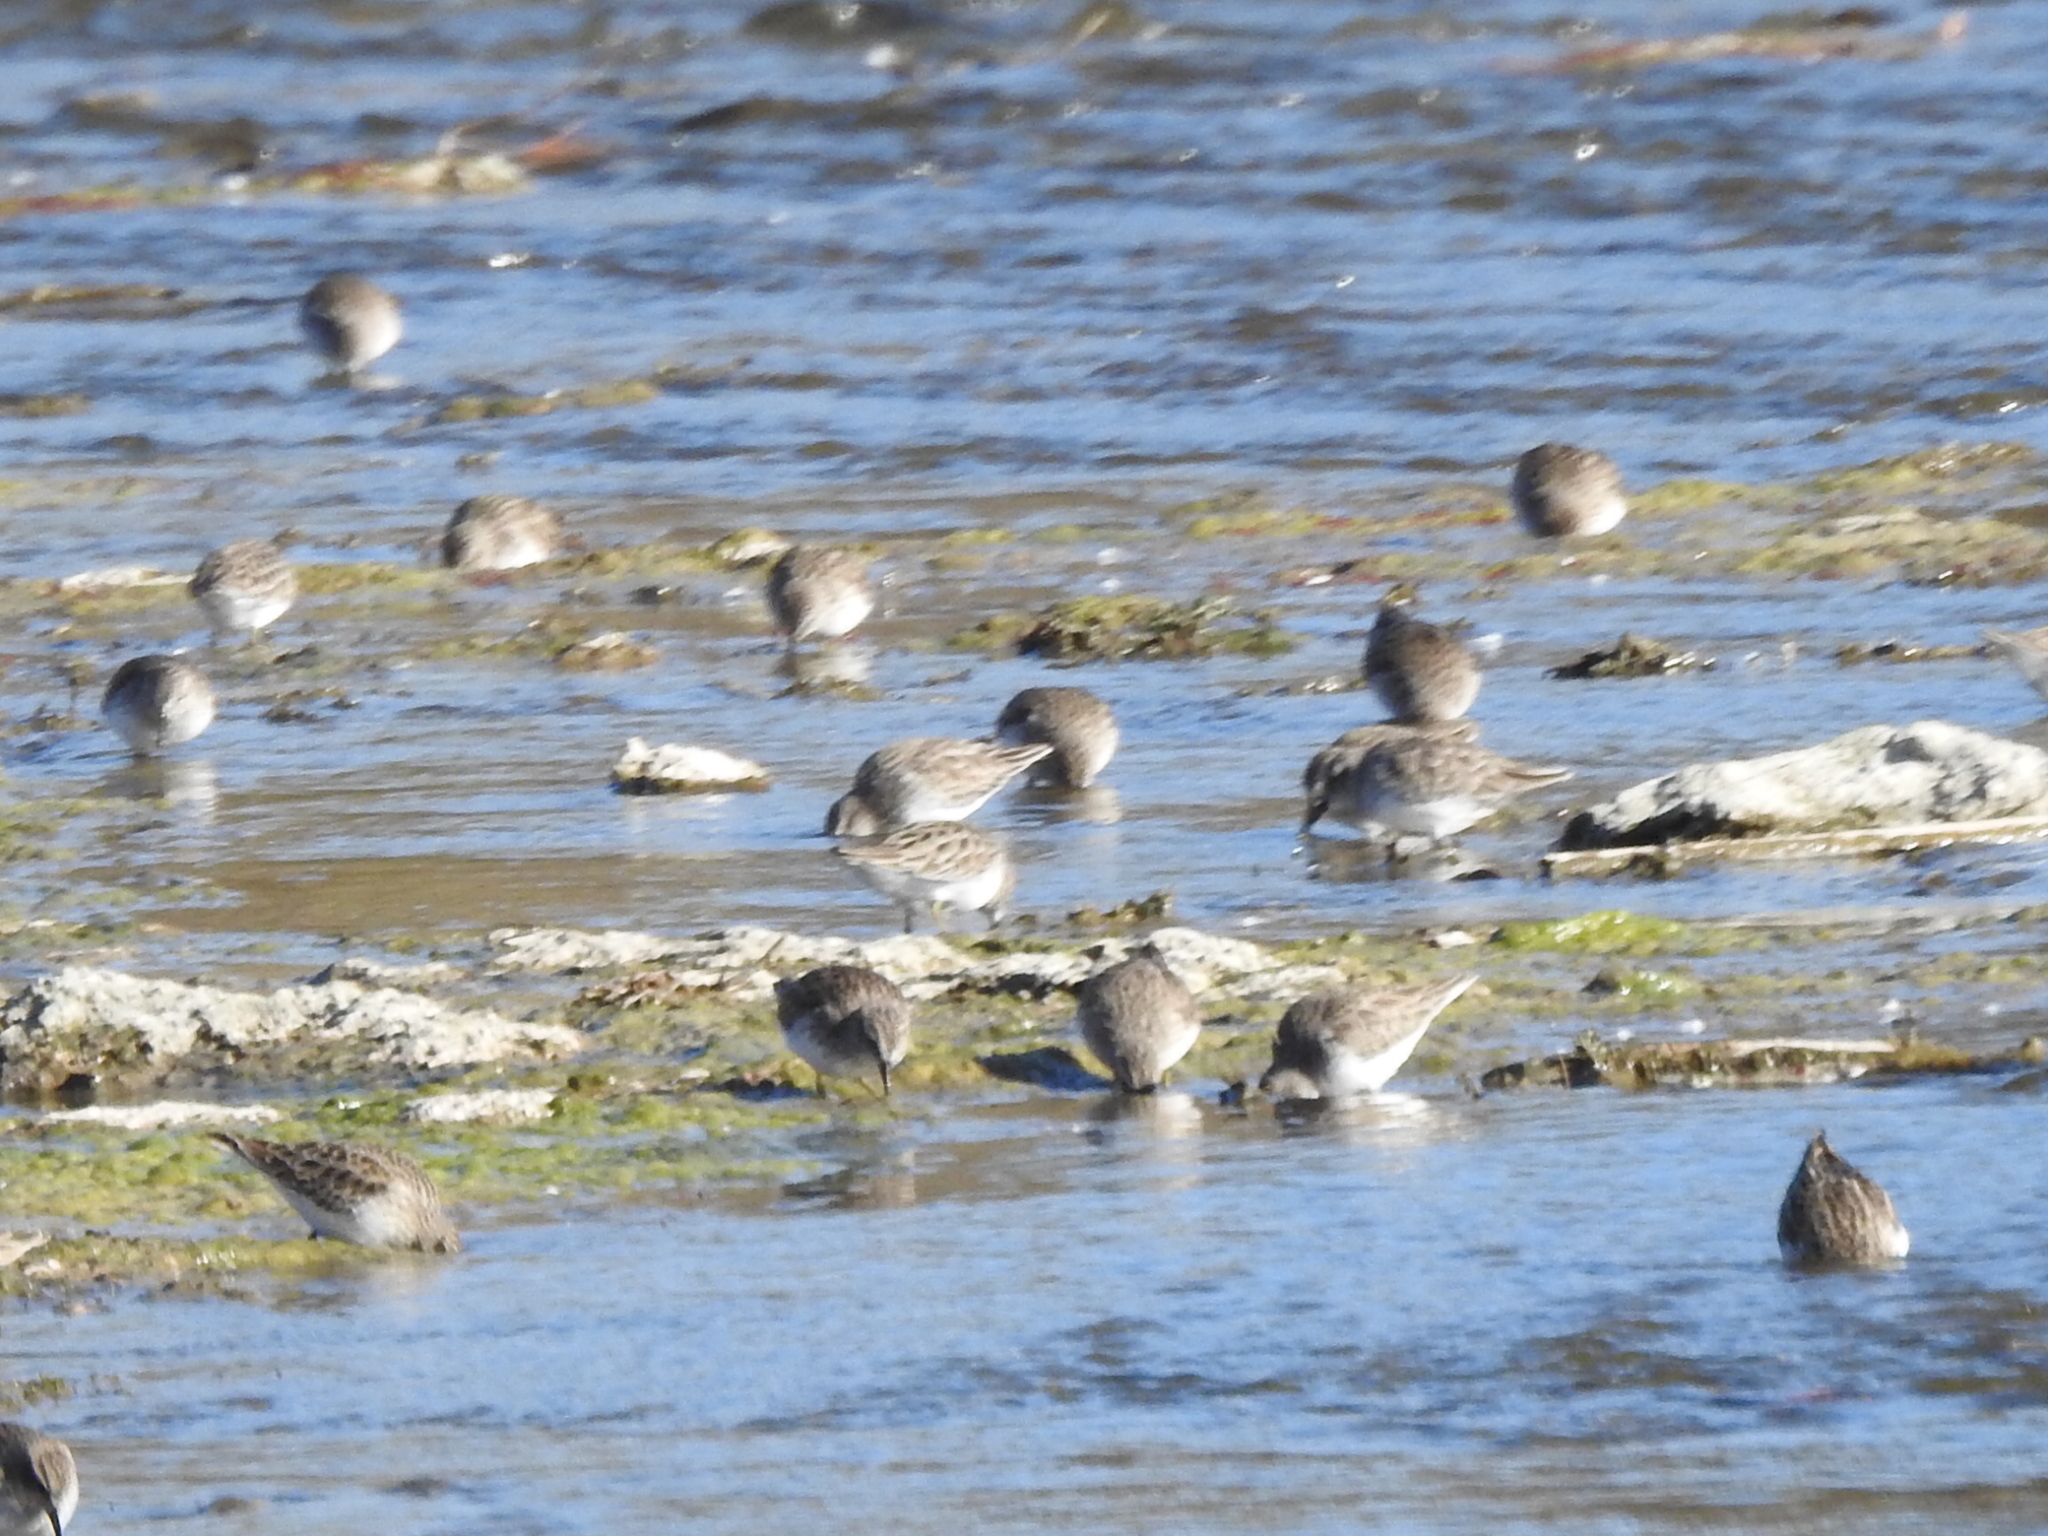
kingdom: Animalia
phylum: Chordata
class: Aves
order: Charadriiformes
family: Scolopacidae
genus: Calidris
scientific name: Calidris minutilla
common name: Least sandpiper
